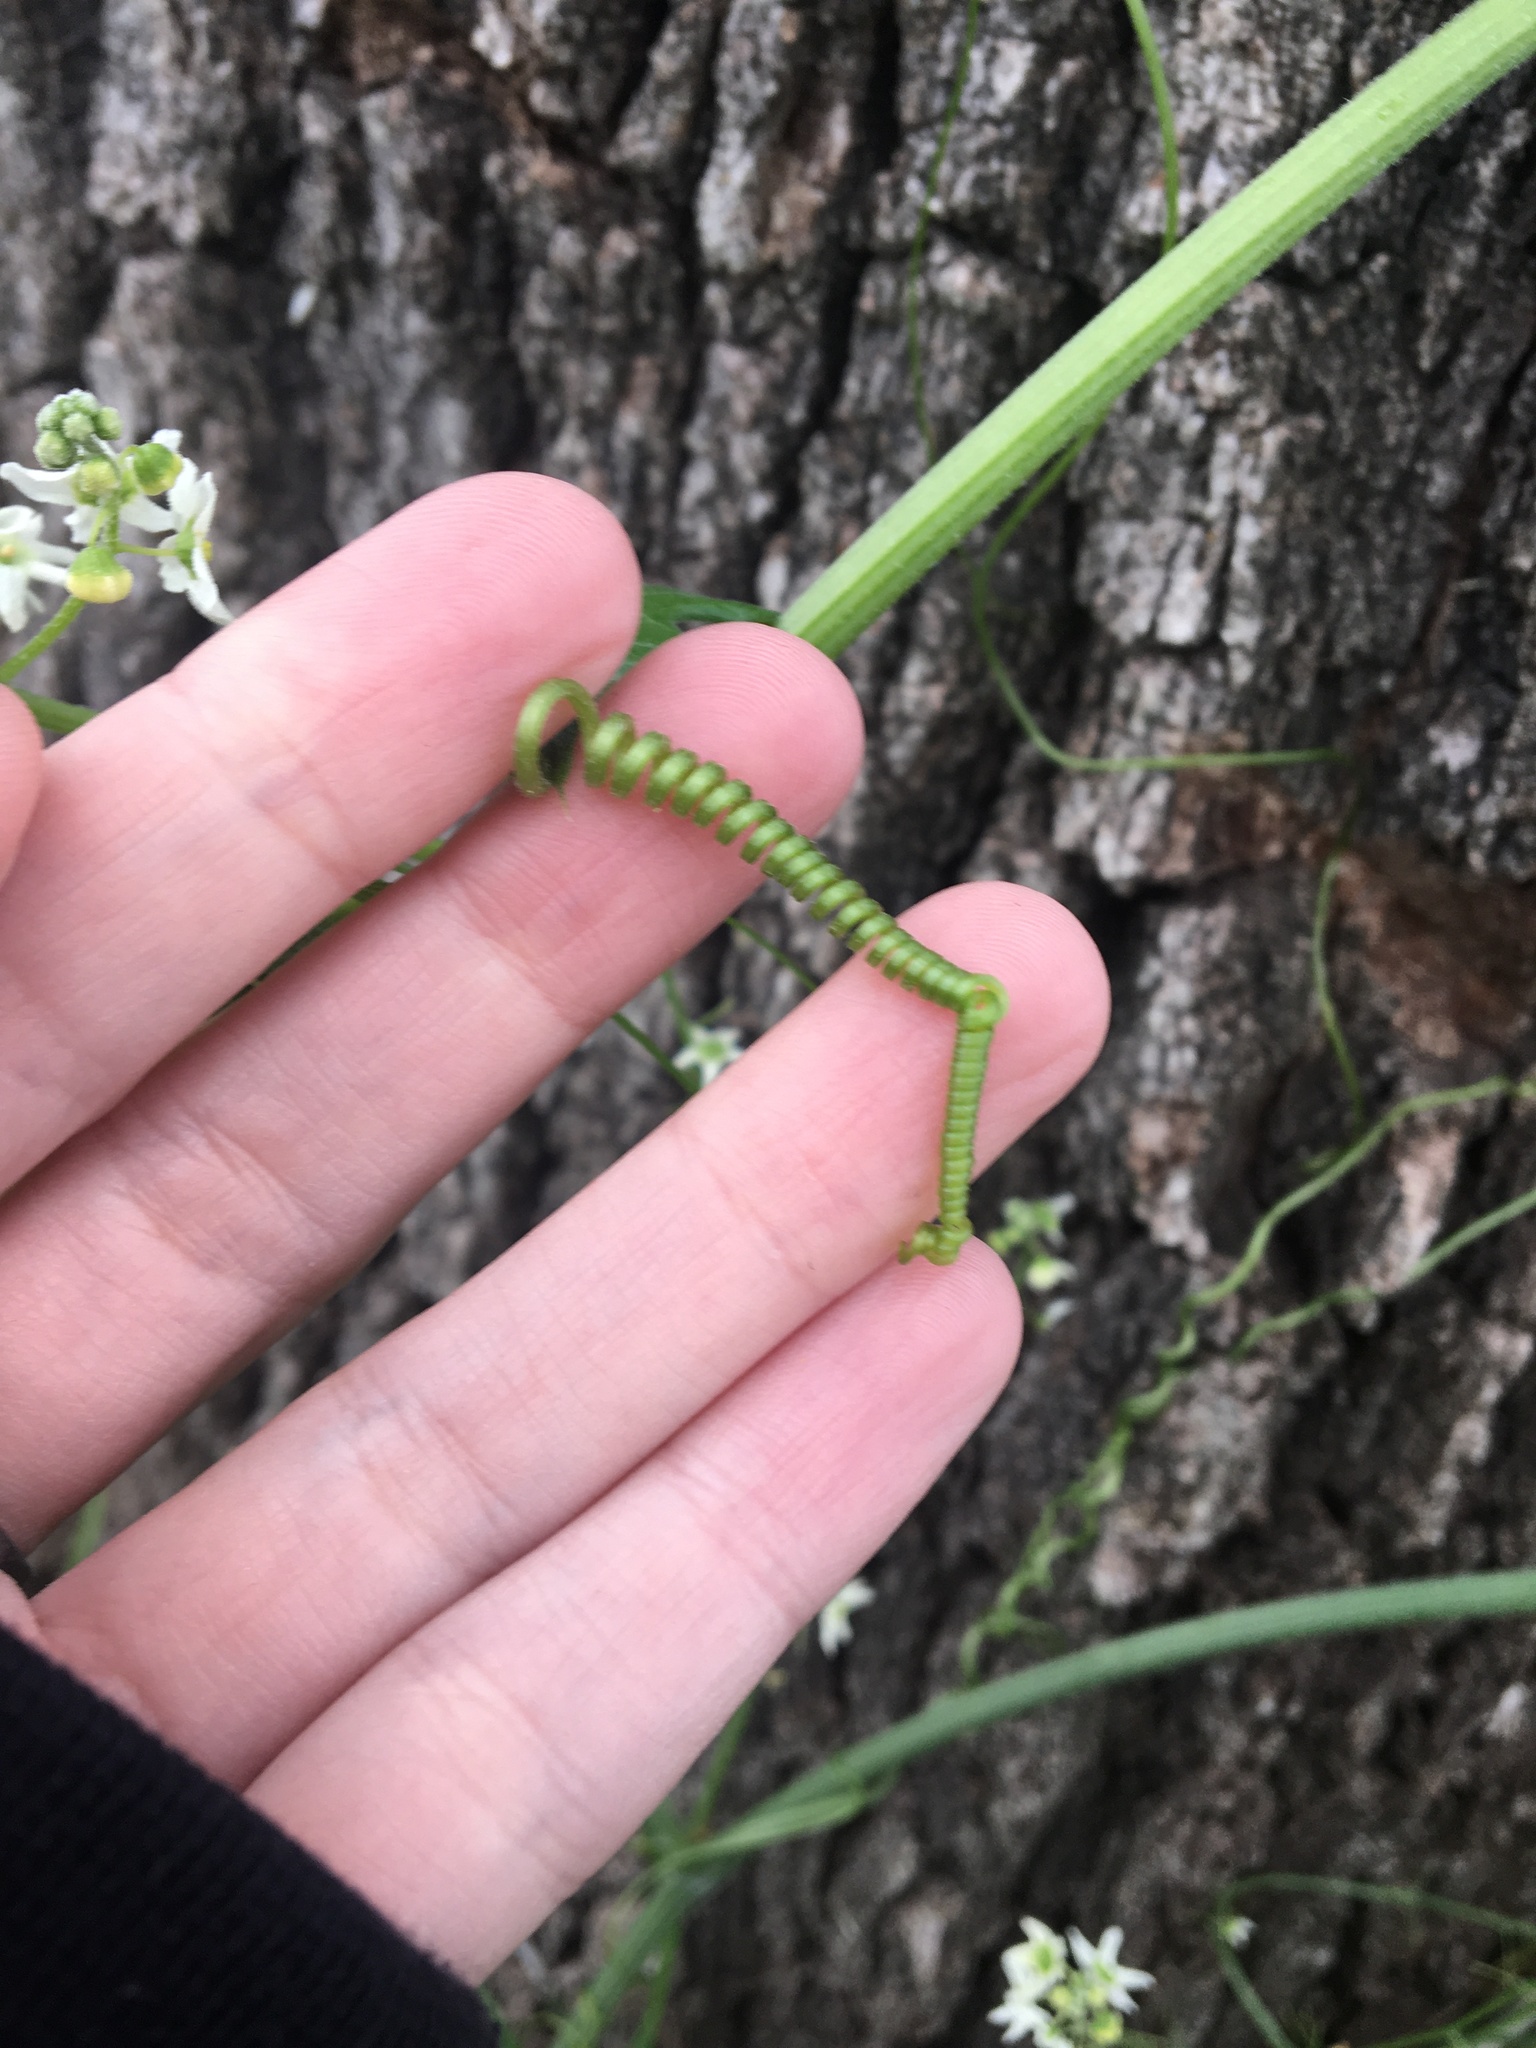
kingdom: Plantae
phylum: Tracheophyta
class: Magnoliopsida
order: Cucurbitales
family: Cucurbitaceae
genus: Marah
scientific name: Marah fabacea
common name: California manroot
